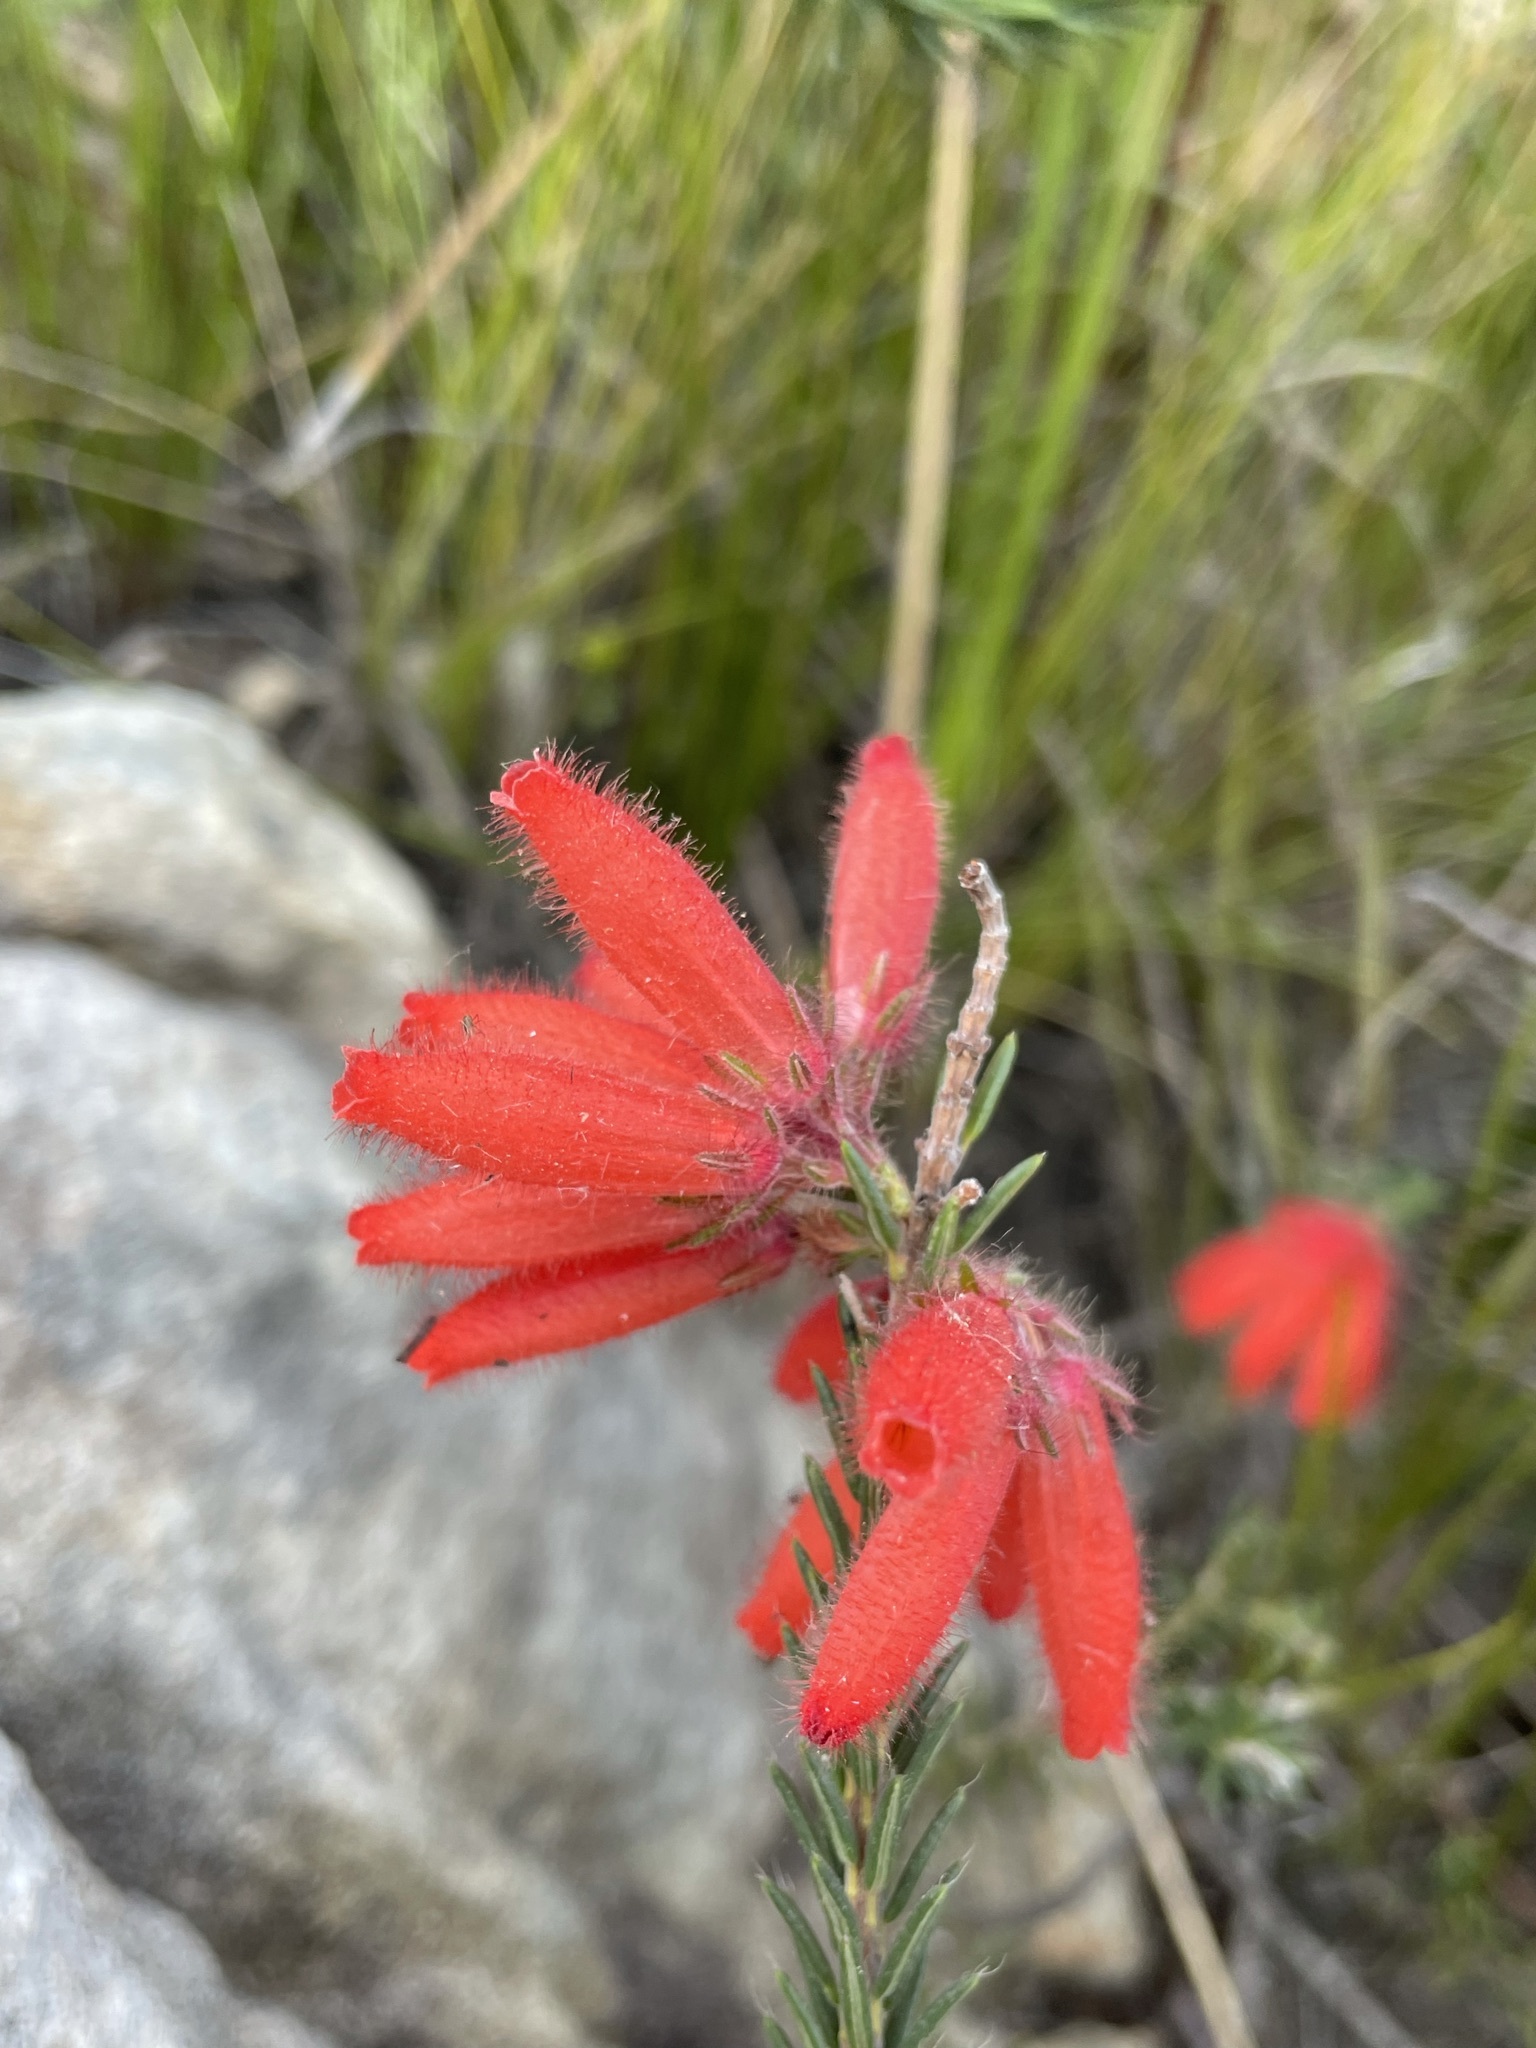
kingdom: Plantae
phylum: Tracheophyta
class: Magnoliopsida
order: Ericales
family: Ericaceae
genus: Erica
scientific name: Erica cerinthoides
